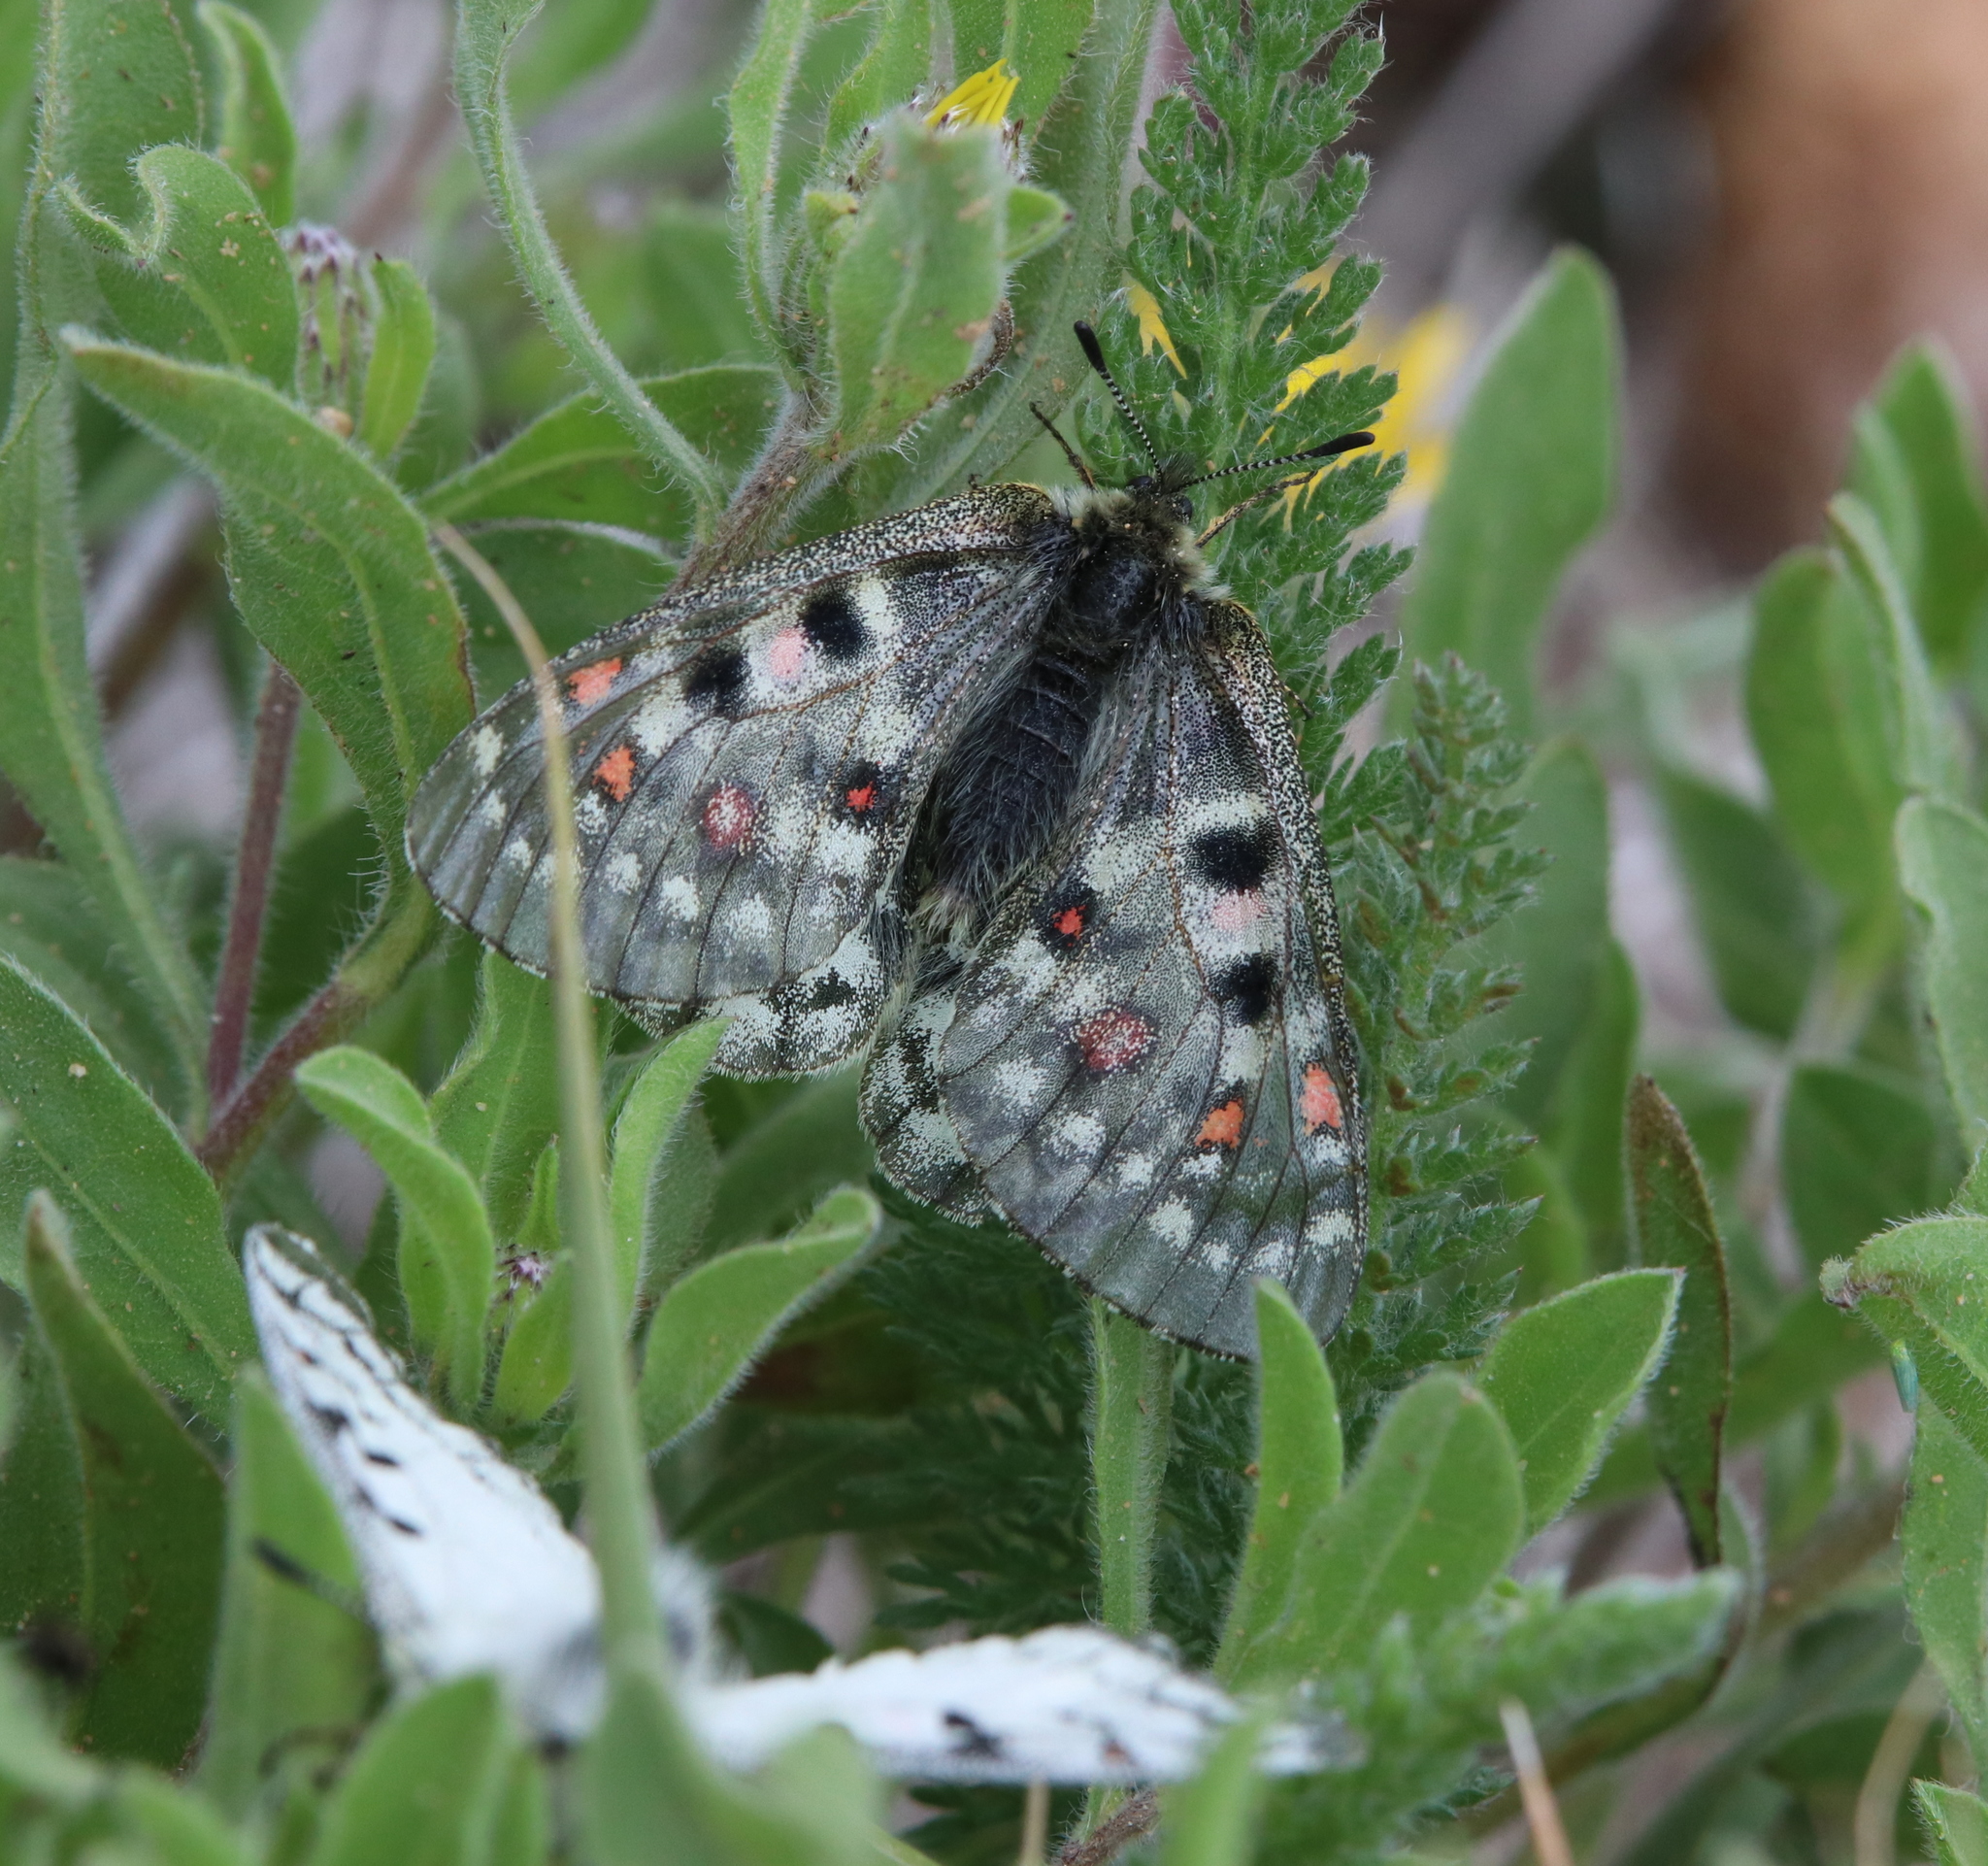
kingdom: Animalia
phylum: Arthropoda
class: Insecta
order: Lepidoptera
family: Papilionidae
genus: Parnassius
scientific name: Parnassius smintheus
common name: Mountain parnassian
